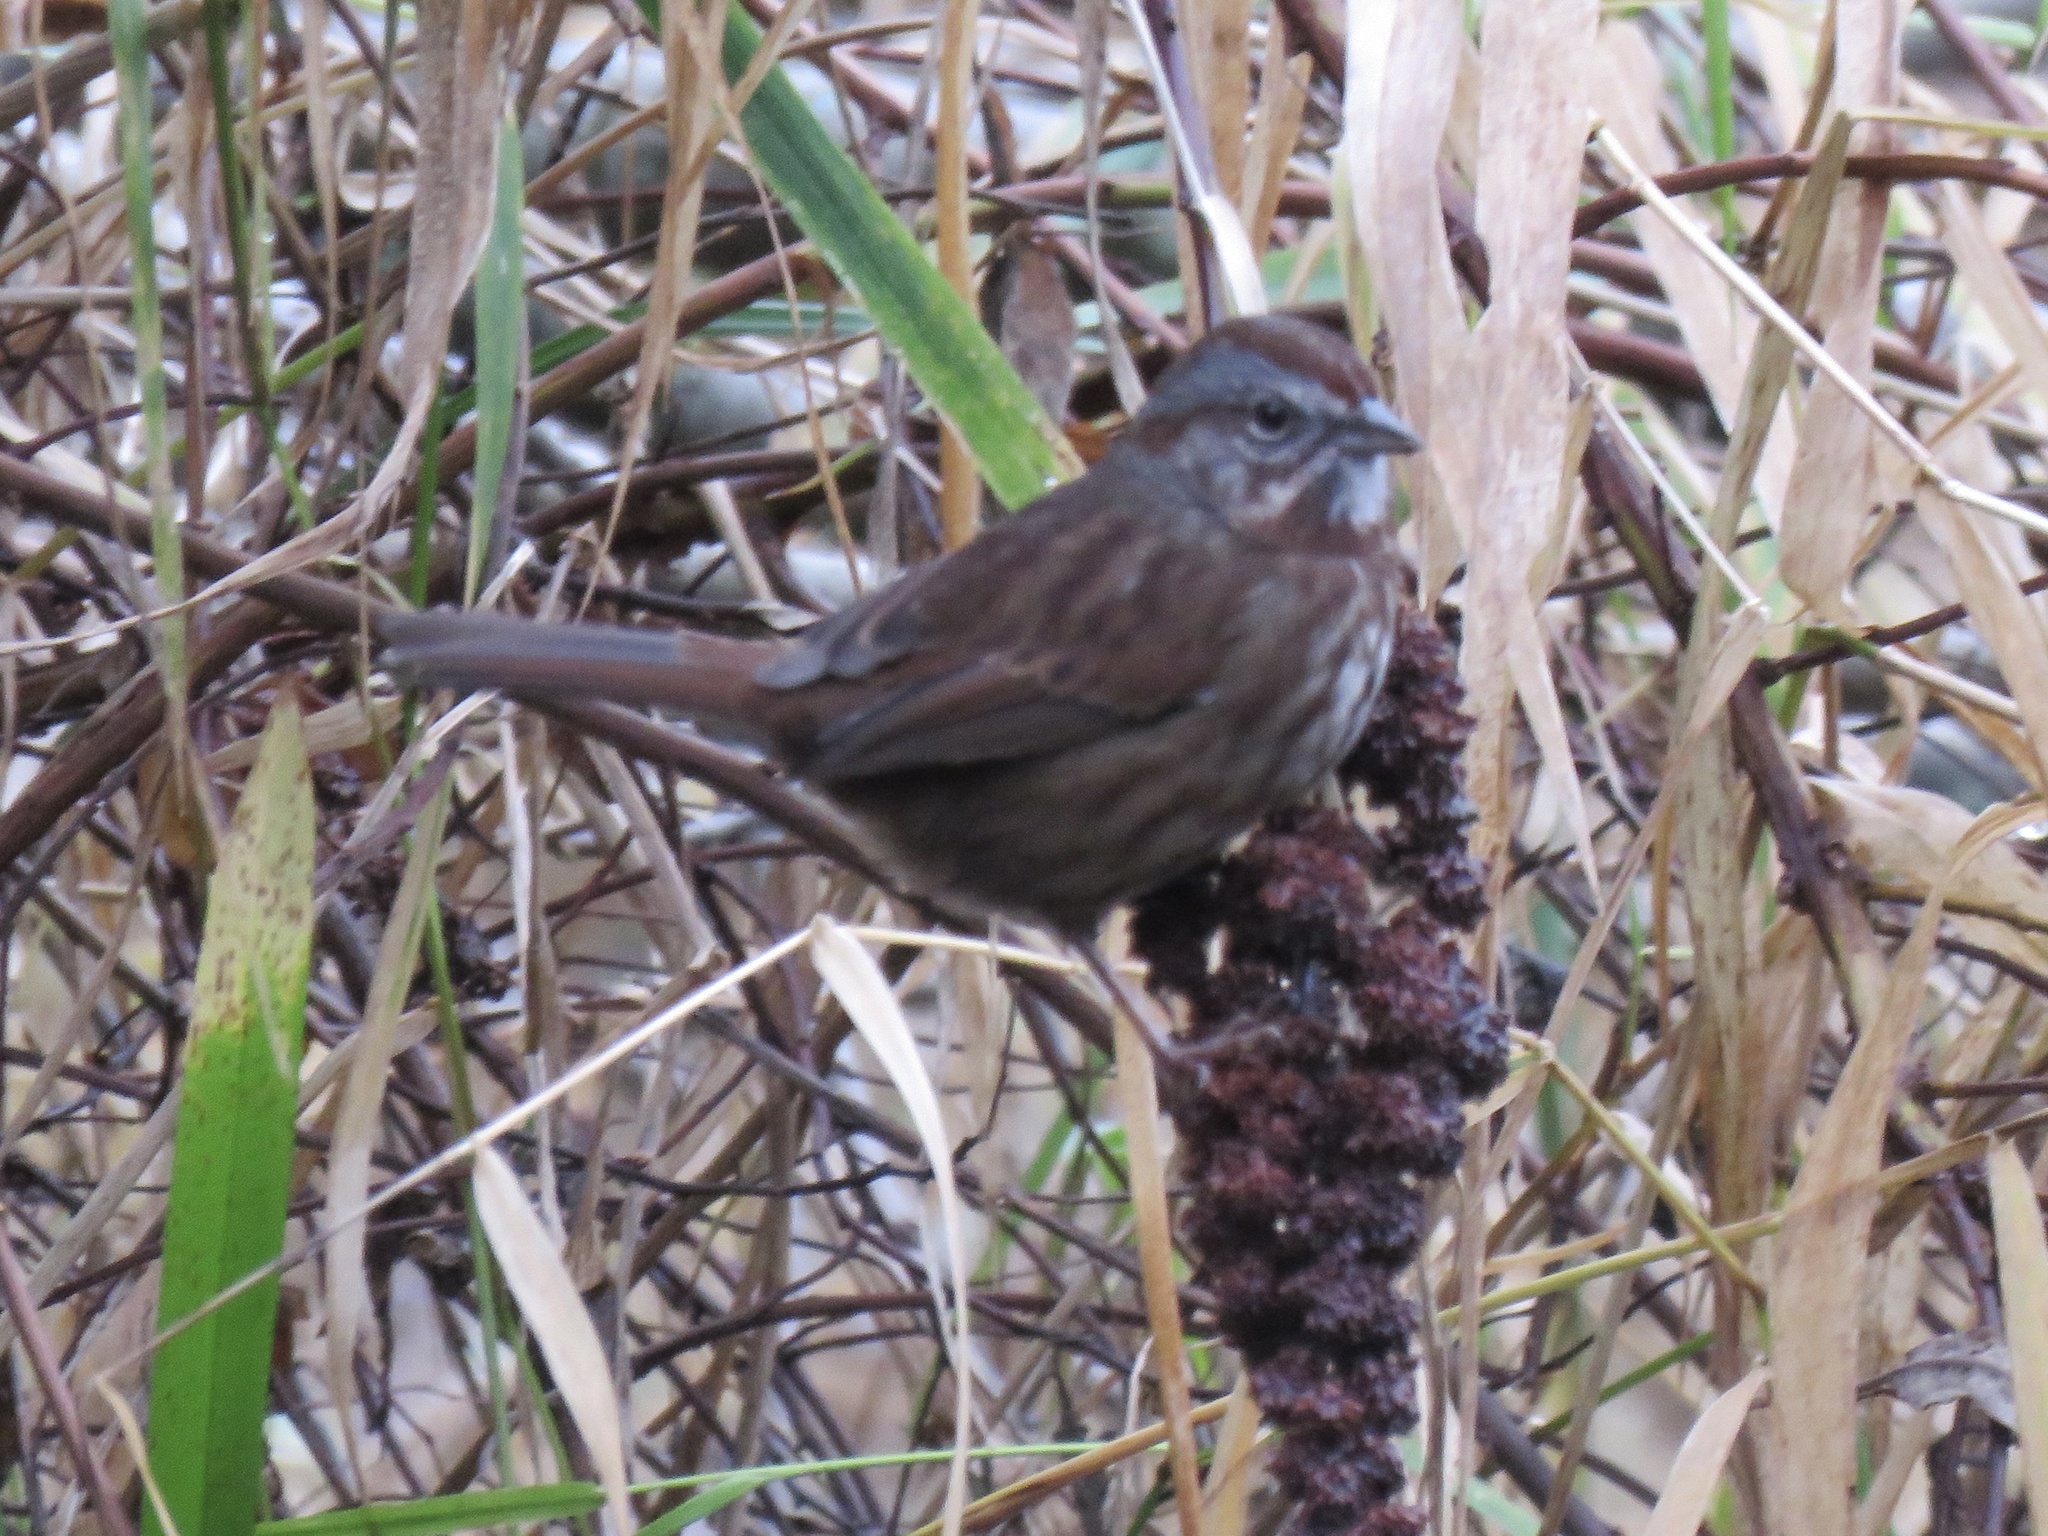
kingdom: Animalia
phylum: Chordata
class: Aves
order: Passeriformes
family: Passerellidae
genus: Melospiza
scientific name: Melospiza melodia
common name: Song sparrow
